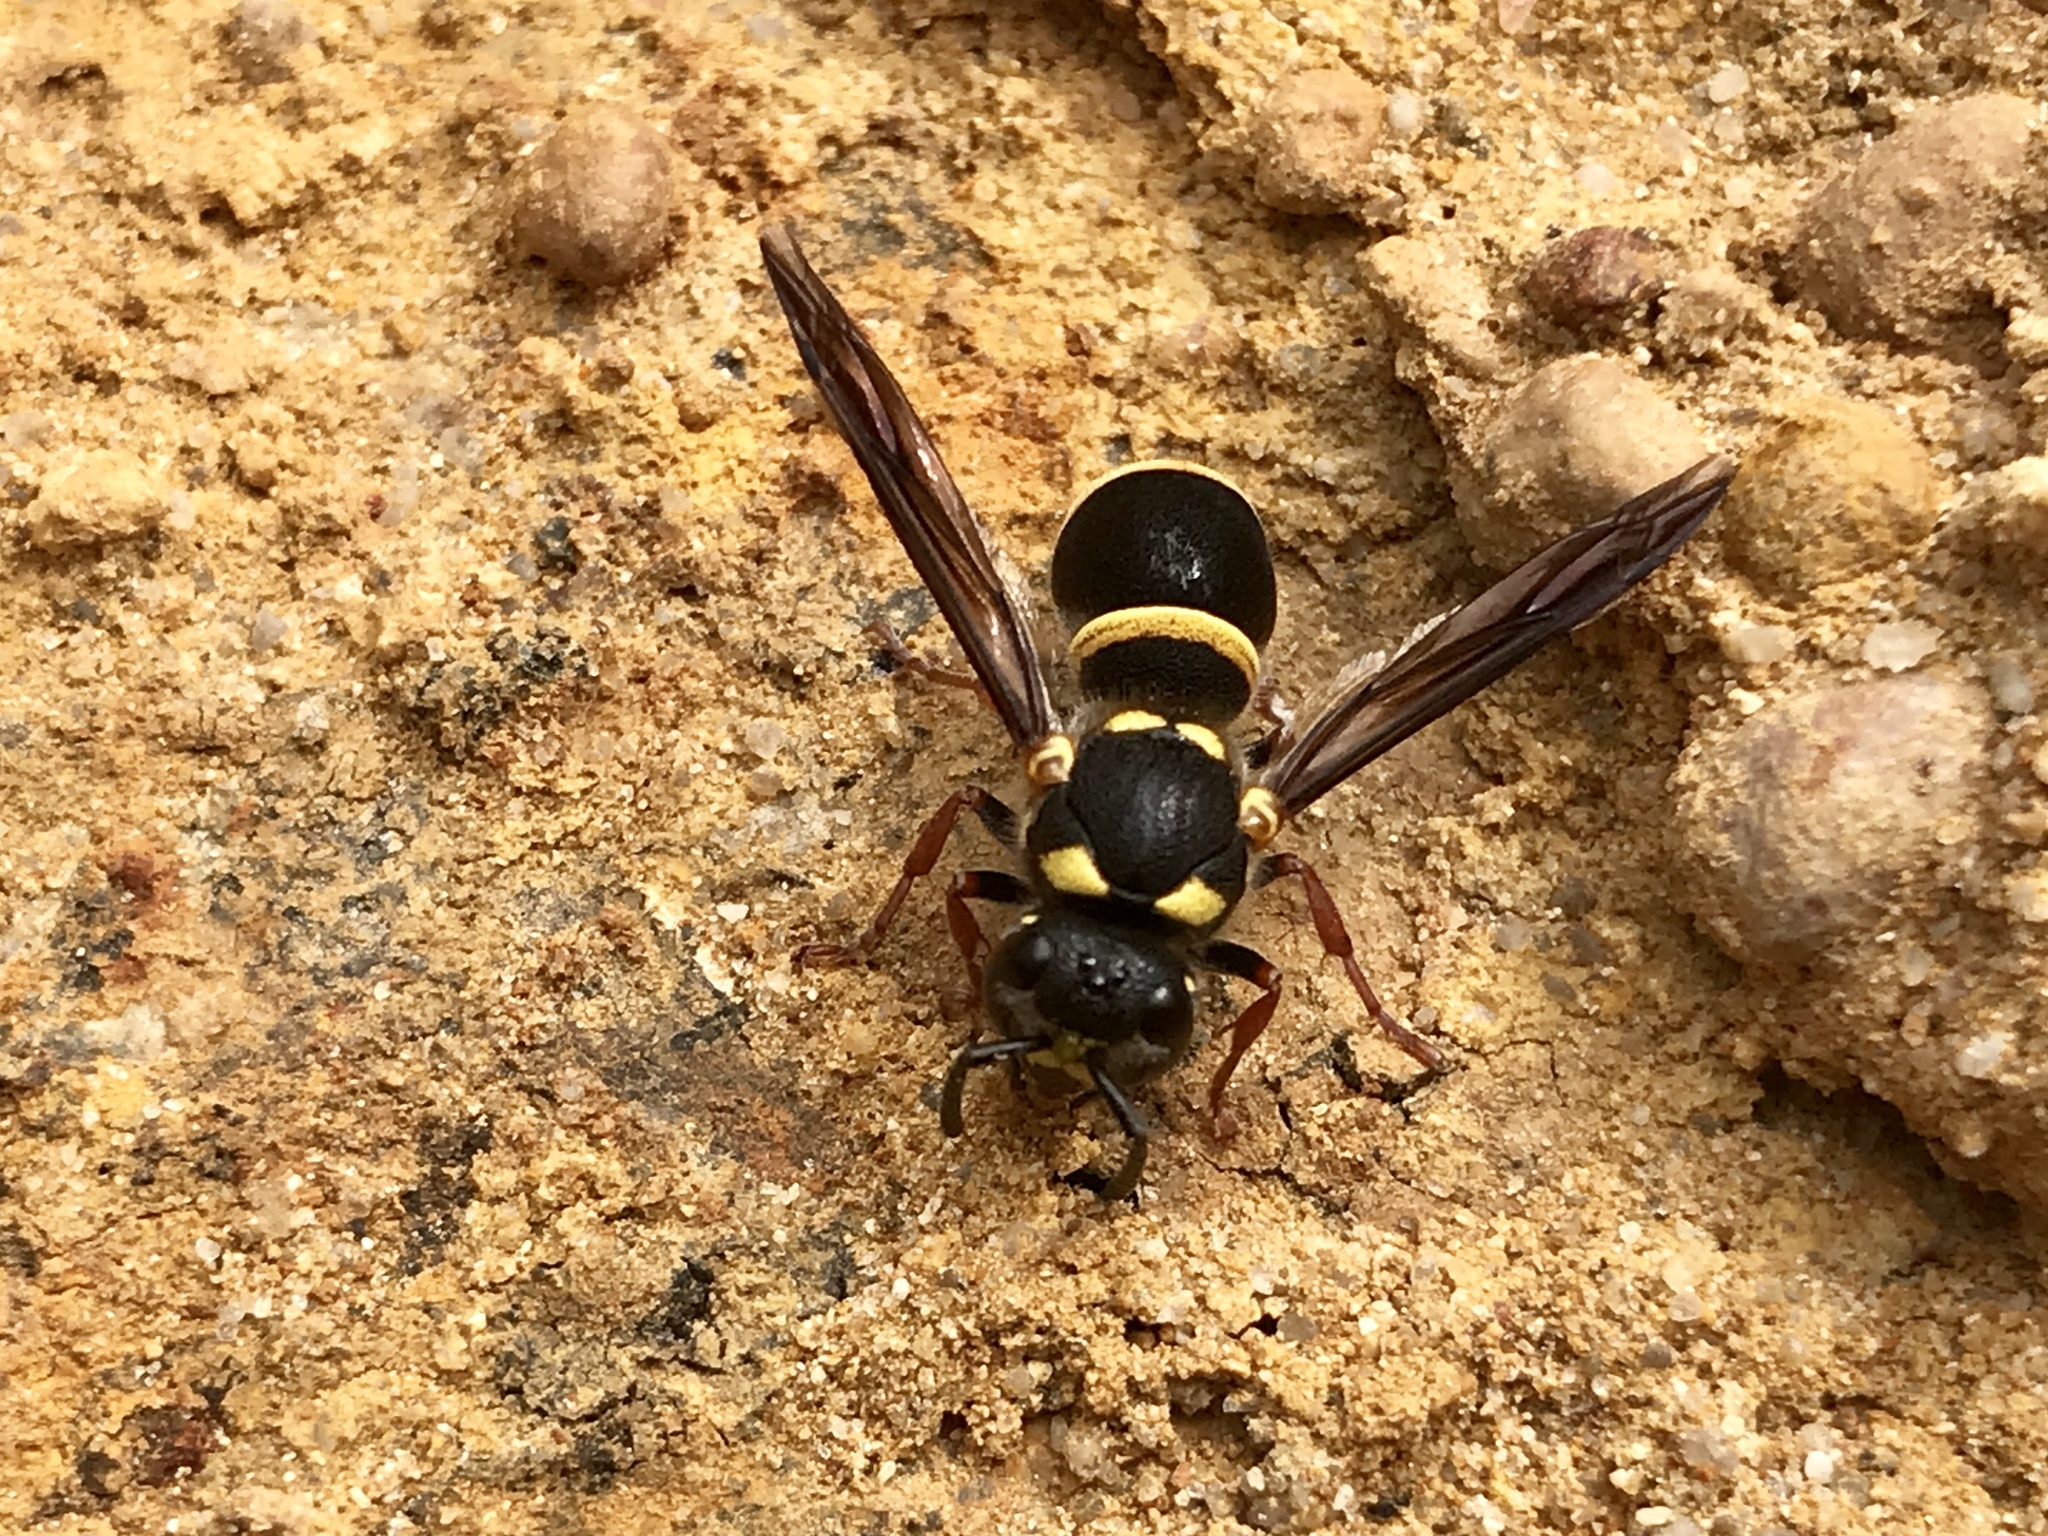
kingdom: Animalia
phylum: Arthropoda
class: Insecta
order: Hymenoptera
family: Eumenidae
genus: Paralastor
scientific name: Paralastor laetus
